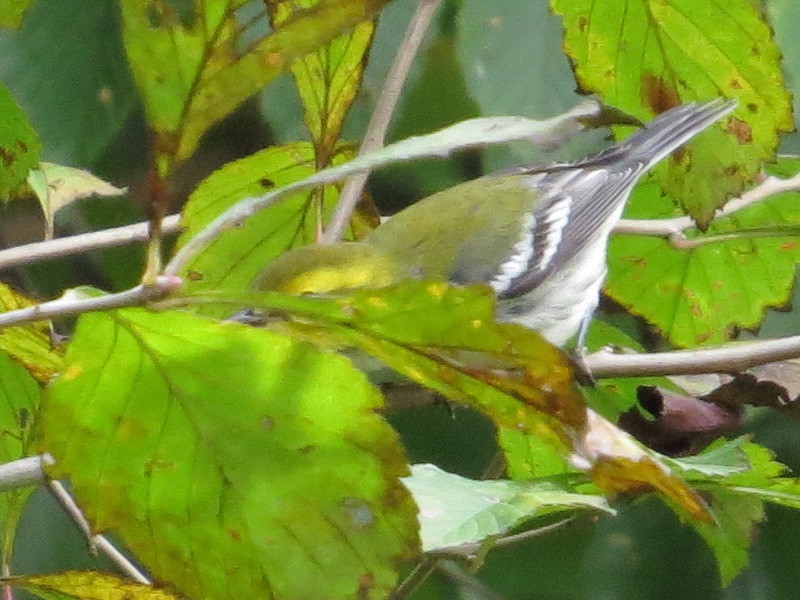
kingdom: Animalia
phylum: Chordata
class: Aves
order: Passeriformes
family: Parulidae
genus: Setophaga
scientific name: Setophaga virens
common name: Black-throated green warbler
